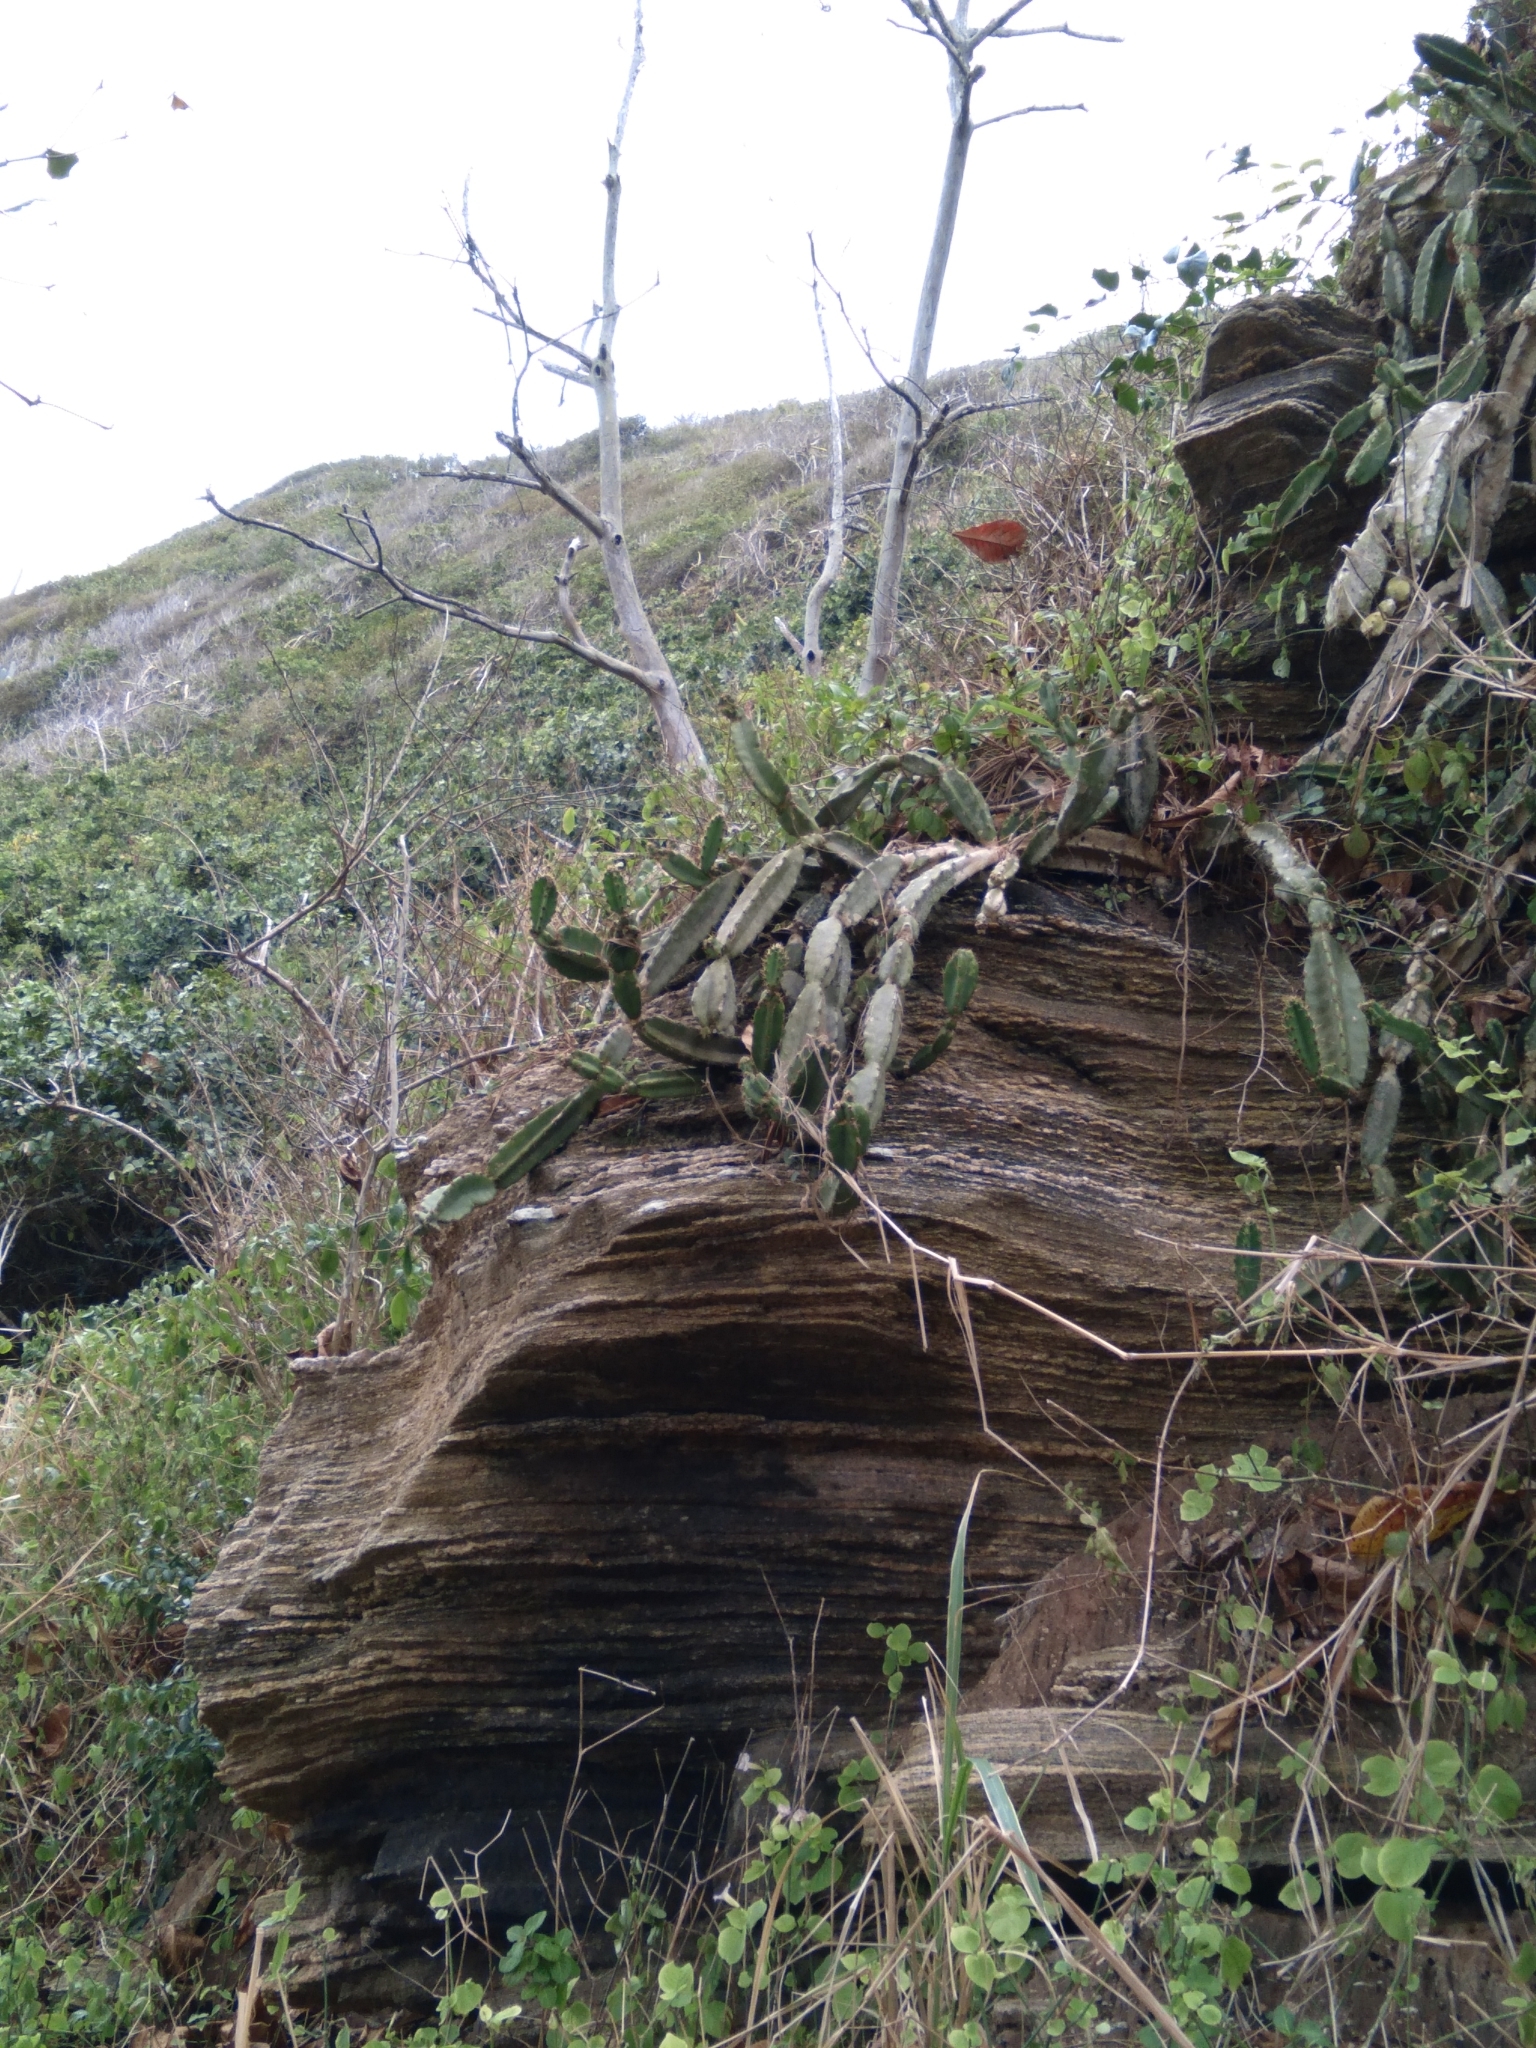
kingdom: Plantae
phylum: Tracheophyta
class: Magnoliopsida
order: Caryophyllales
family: Cactaceae
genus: Cereus
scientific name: Cereus fernambucensis
